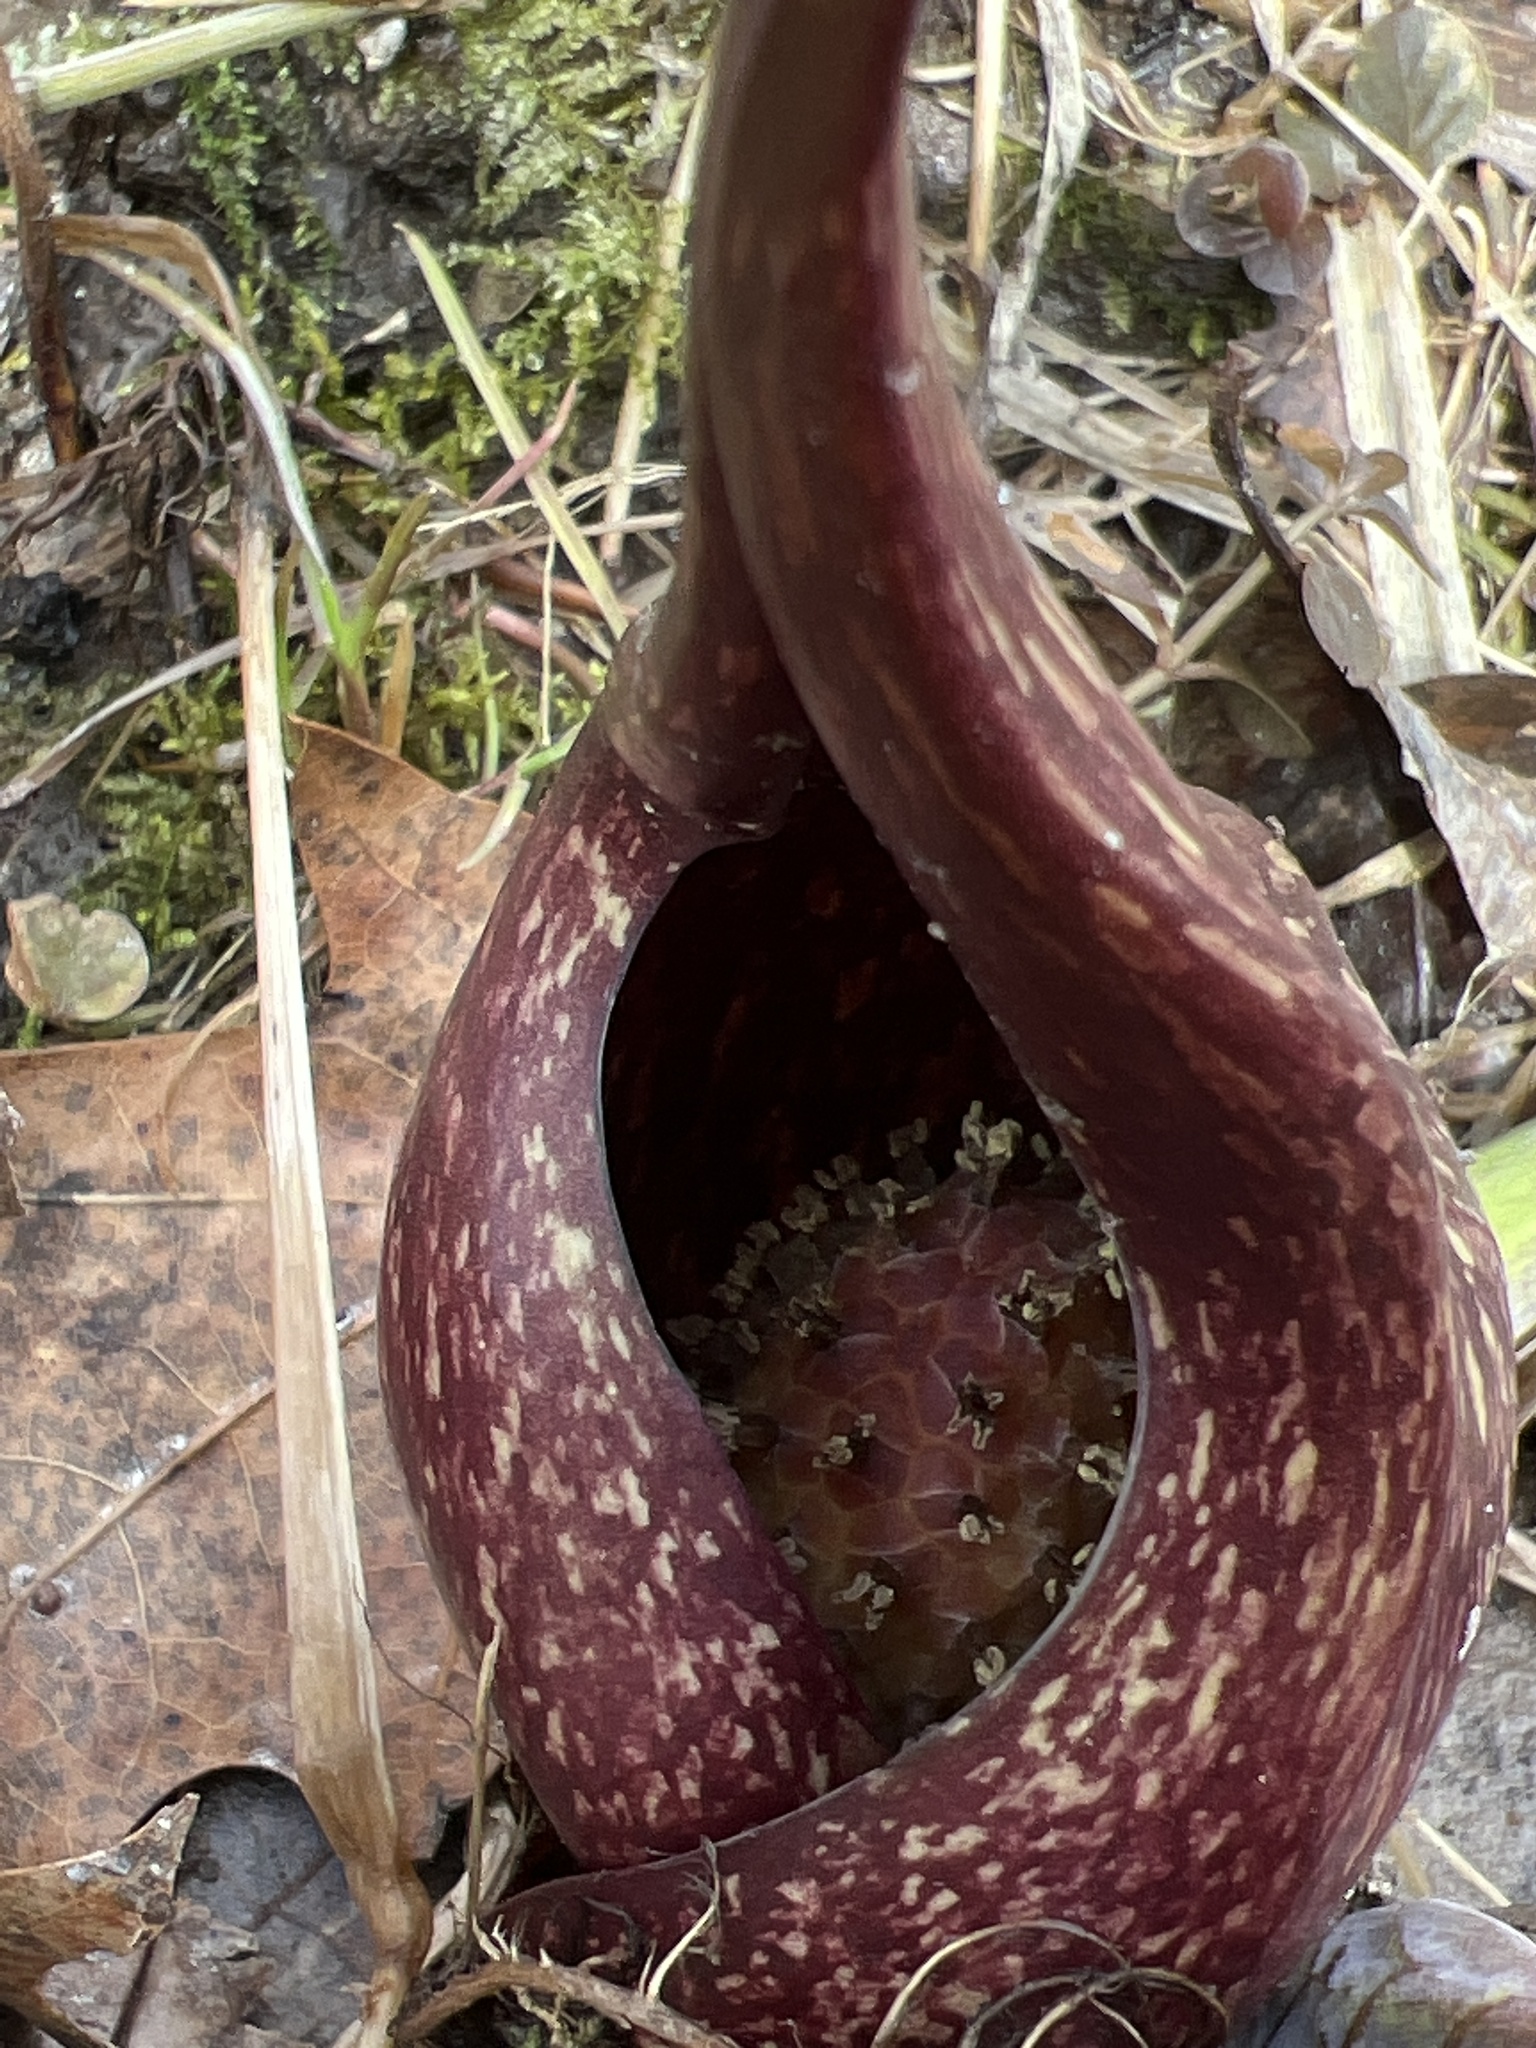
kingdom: Plantae
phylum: Tracheophyta
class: Liliopsida
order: Alismatales
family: Araceae
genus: Symplocarpus
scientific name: Symplocarpus foetidus
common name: Eastern skunk cabbage
